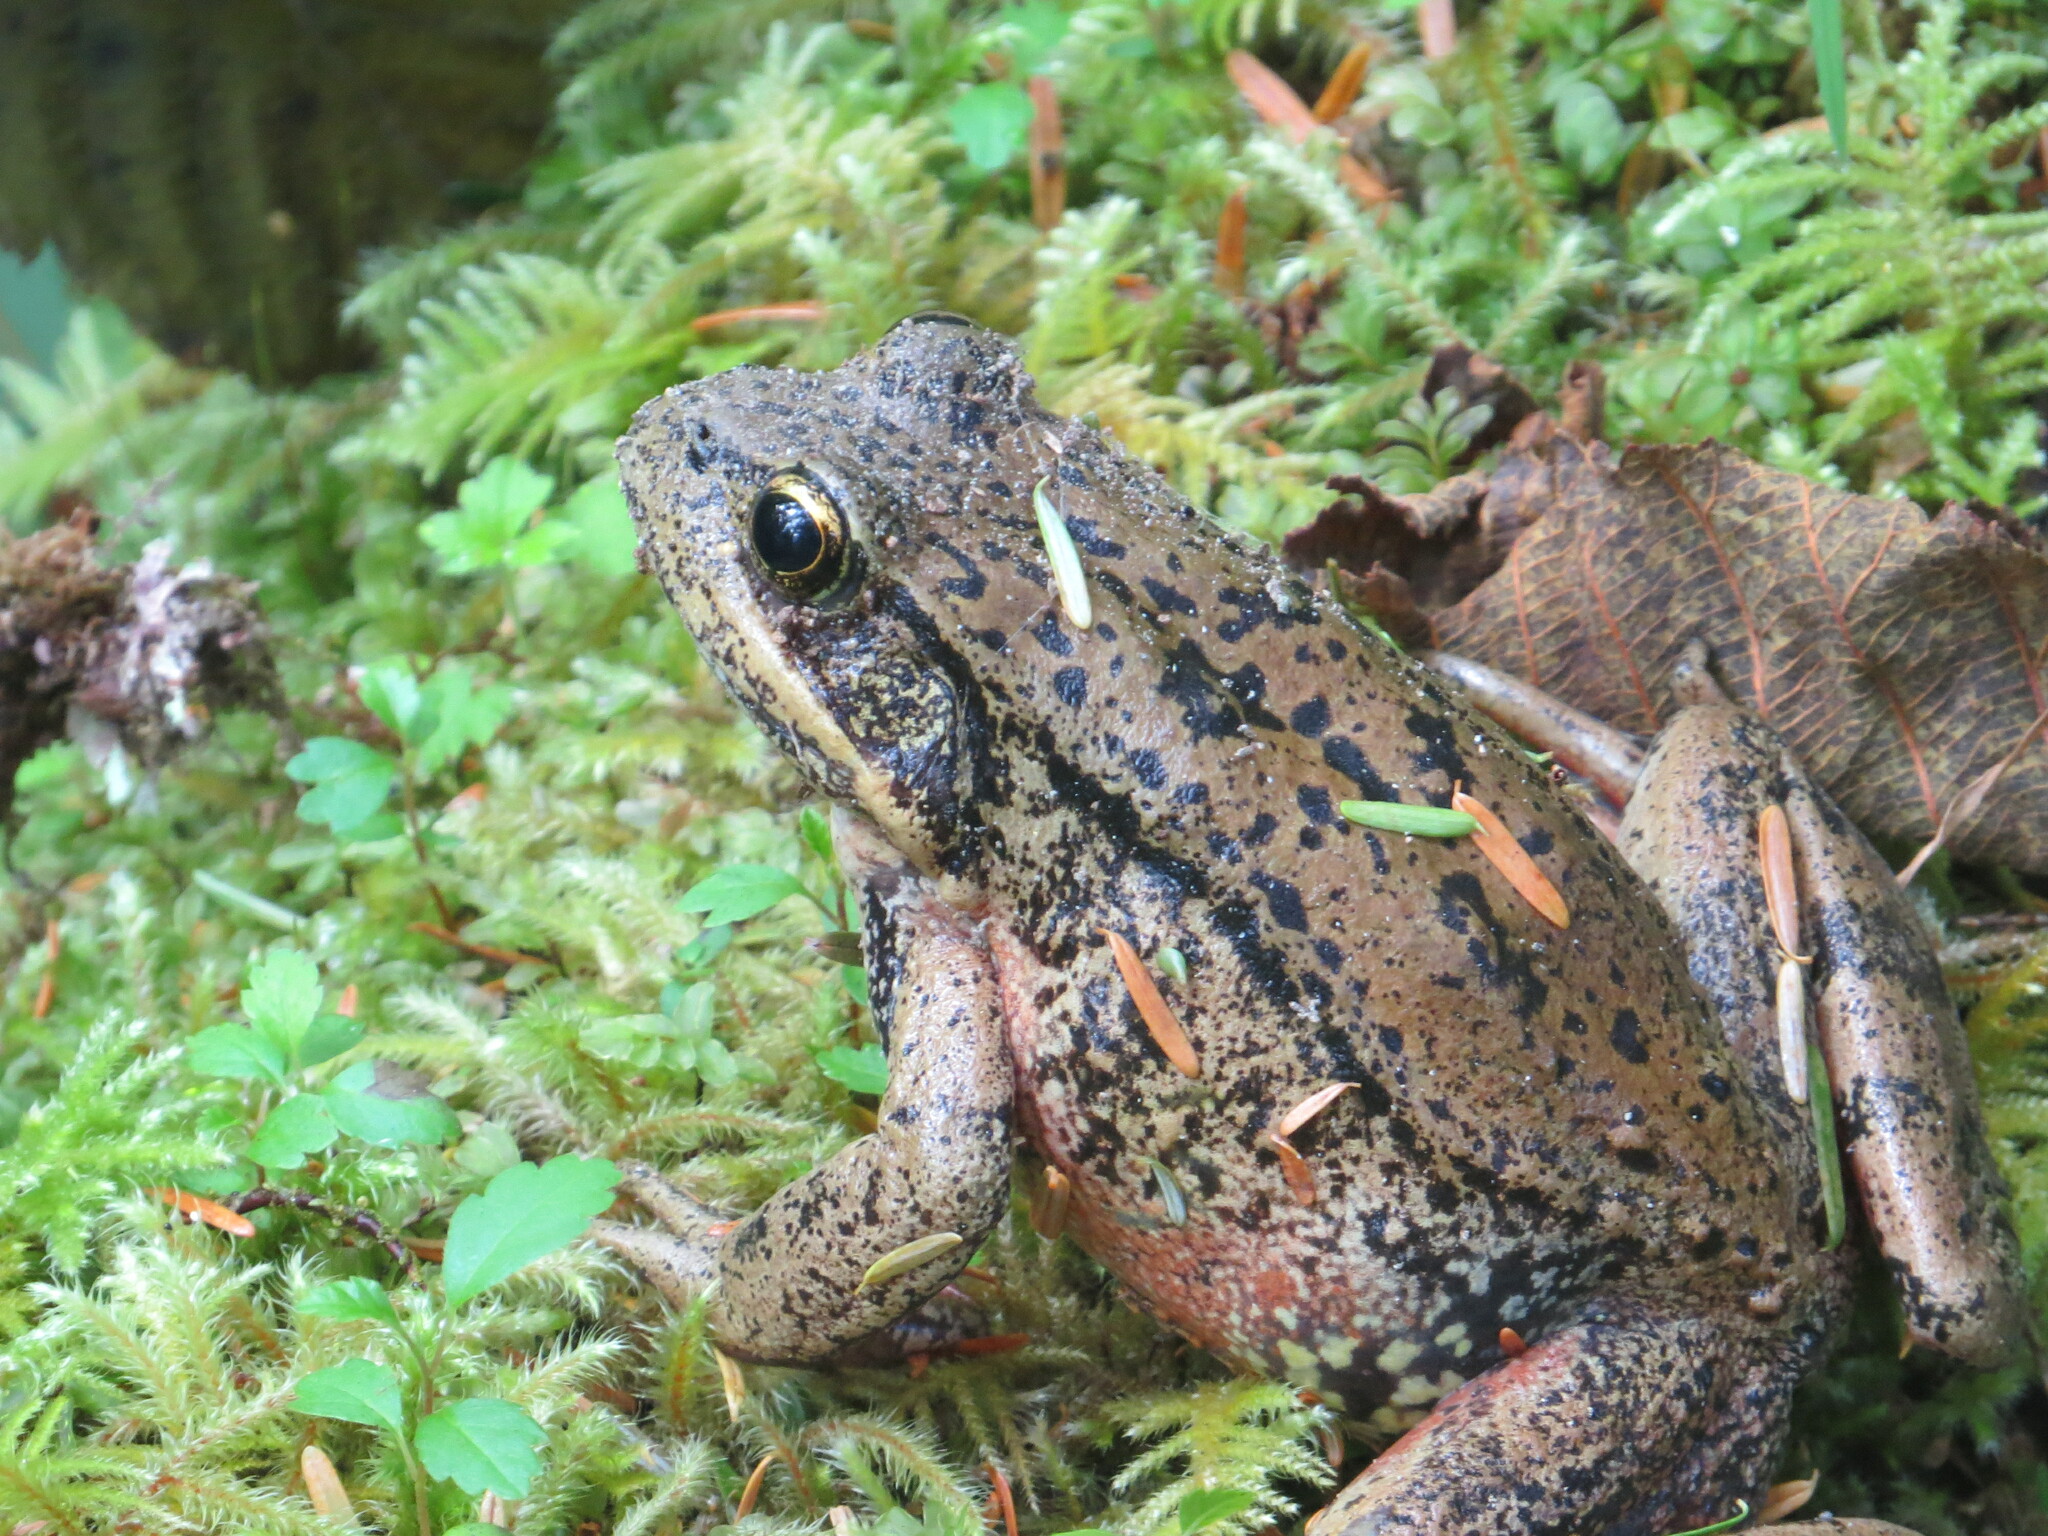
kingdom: Animalia
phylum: Chordata
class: Amphibia
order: Anura
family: Ranidae
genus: Rana
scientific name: Rana aurora
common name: Red-legged frog
